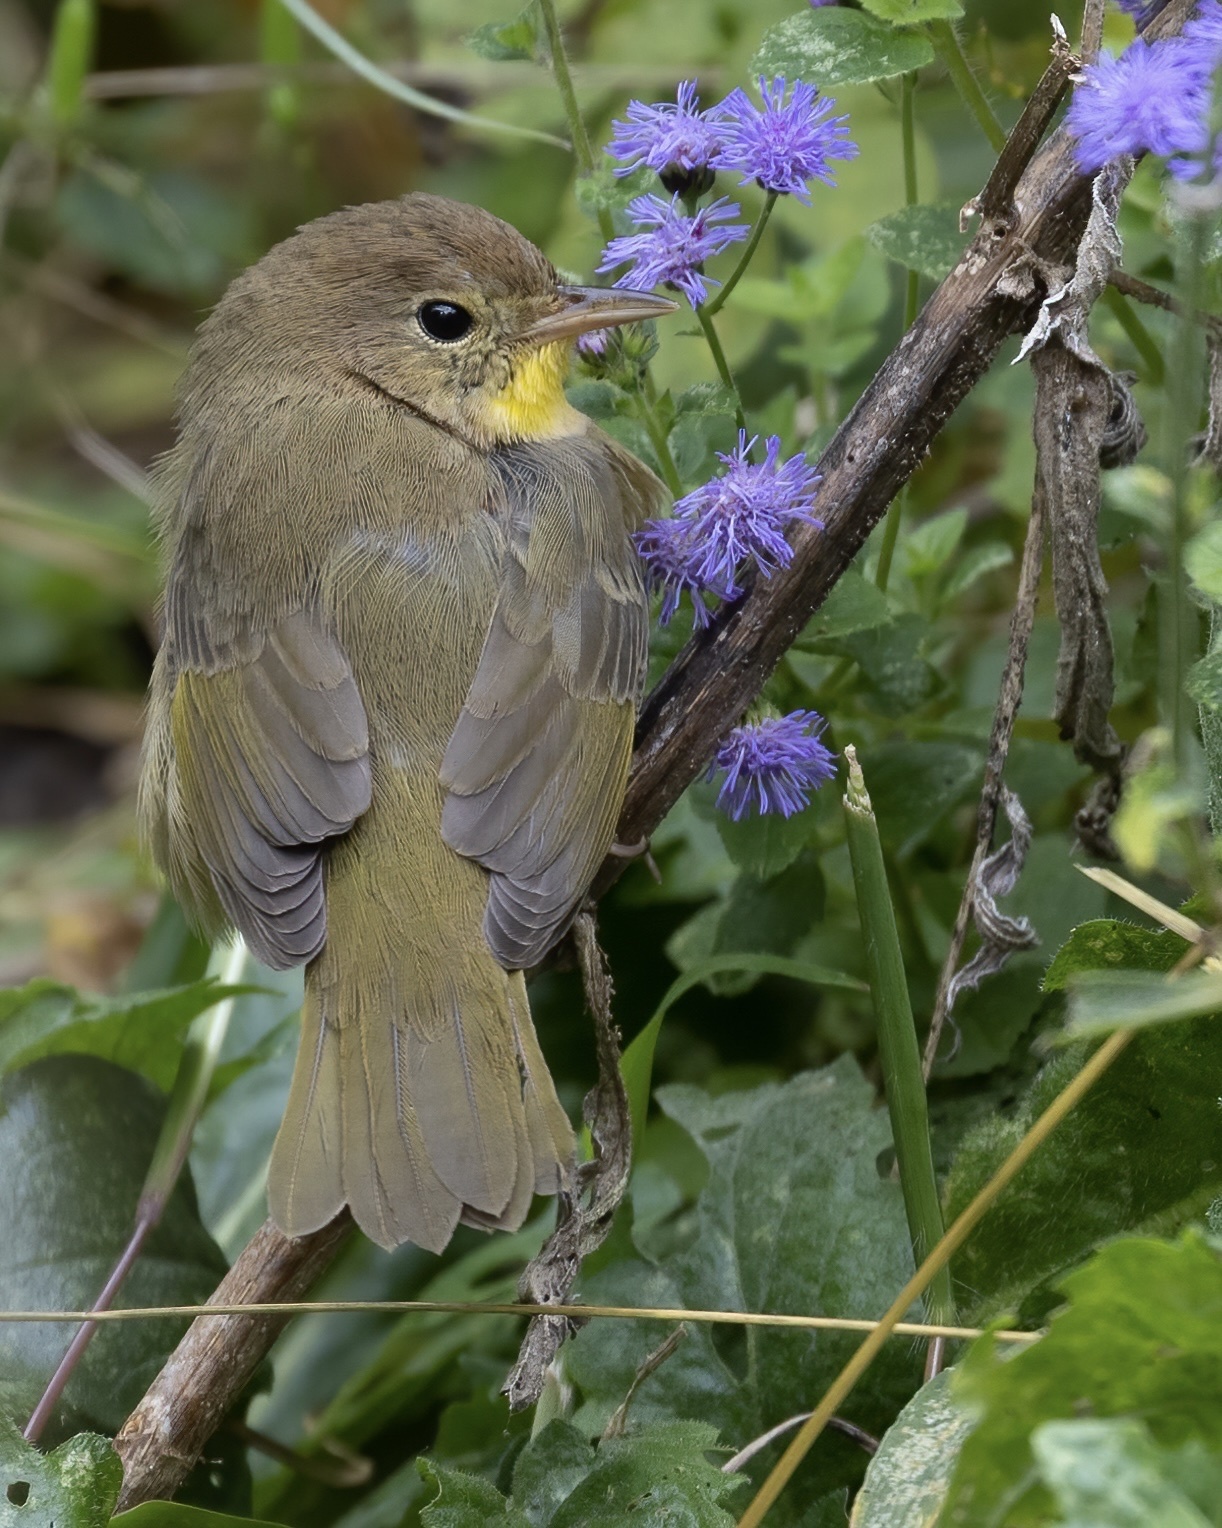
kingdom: Animalia
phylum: Chordata
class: Aves
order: Passeriformes
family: Parulidae
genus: Geothlypis
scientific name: Geothlypis trichas
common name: Common yellowthroat
